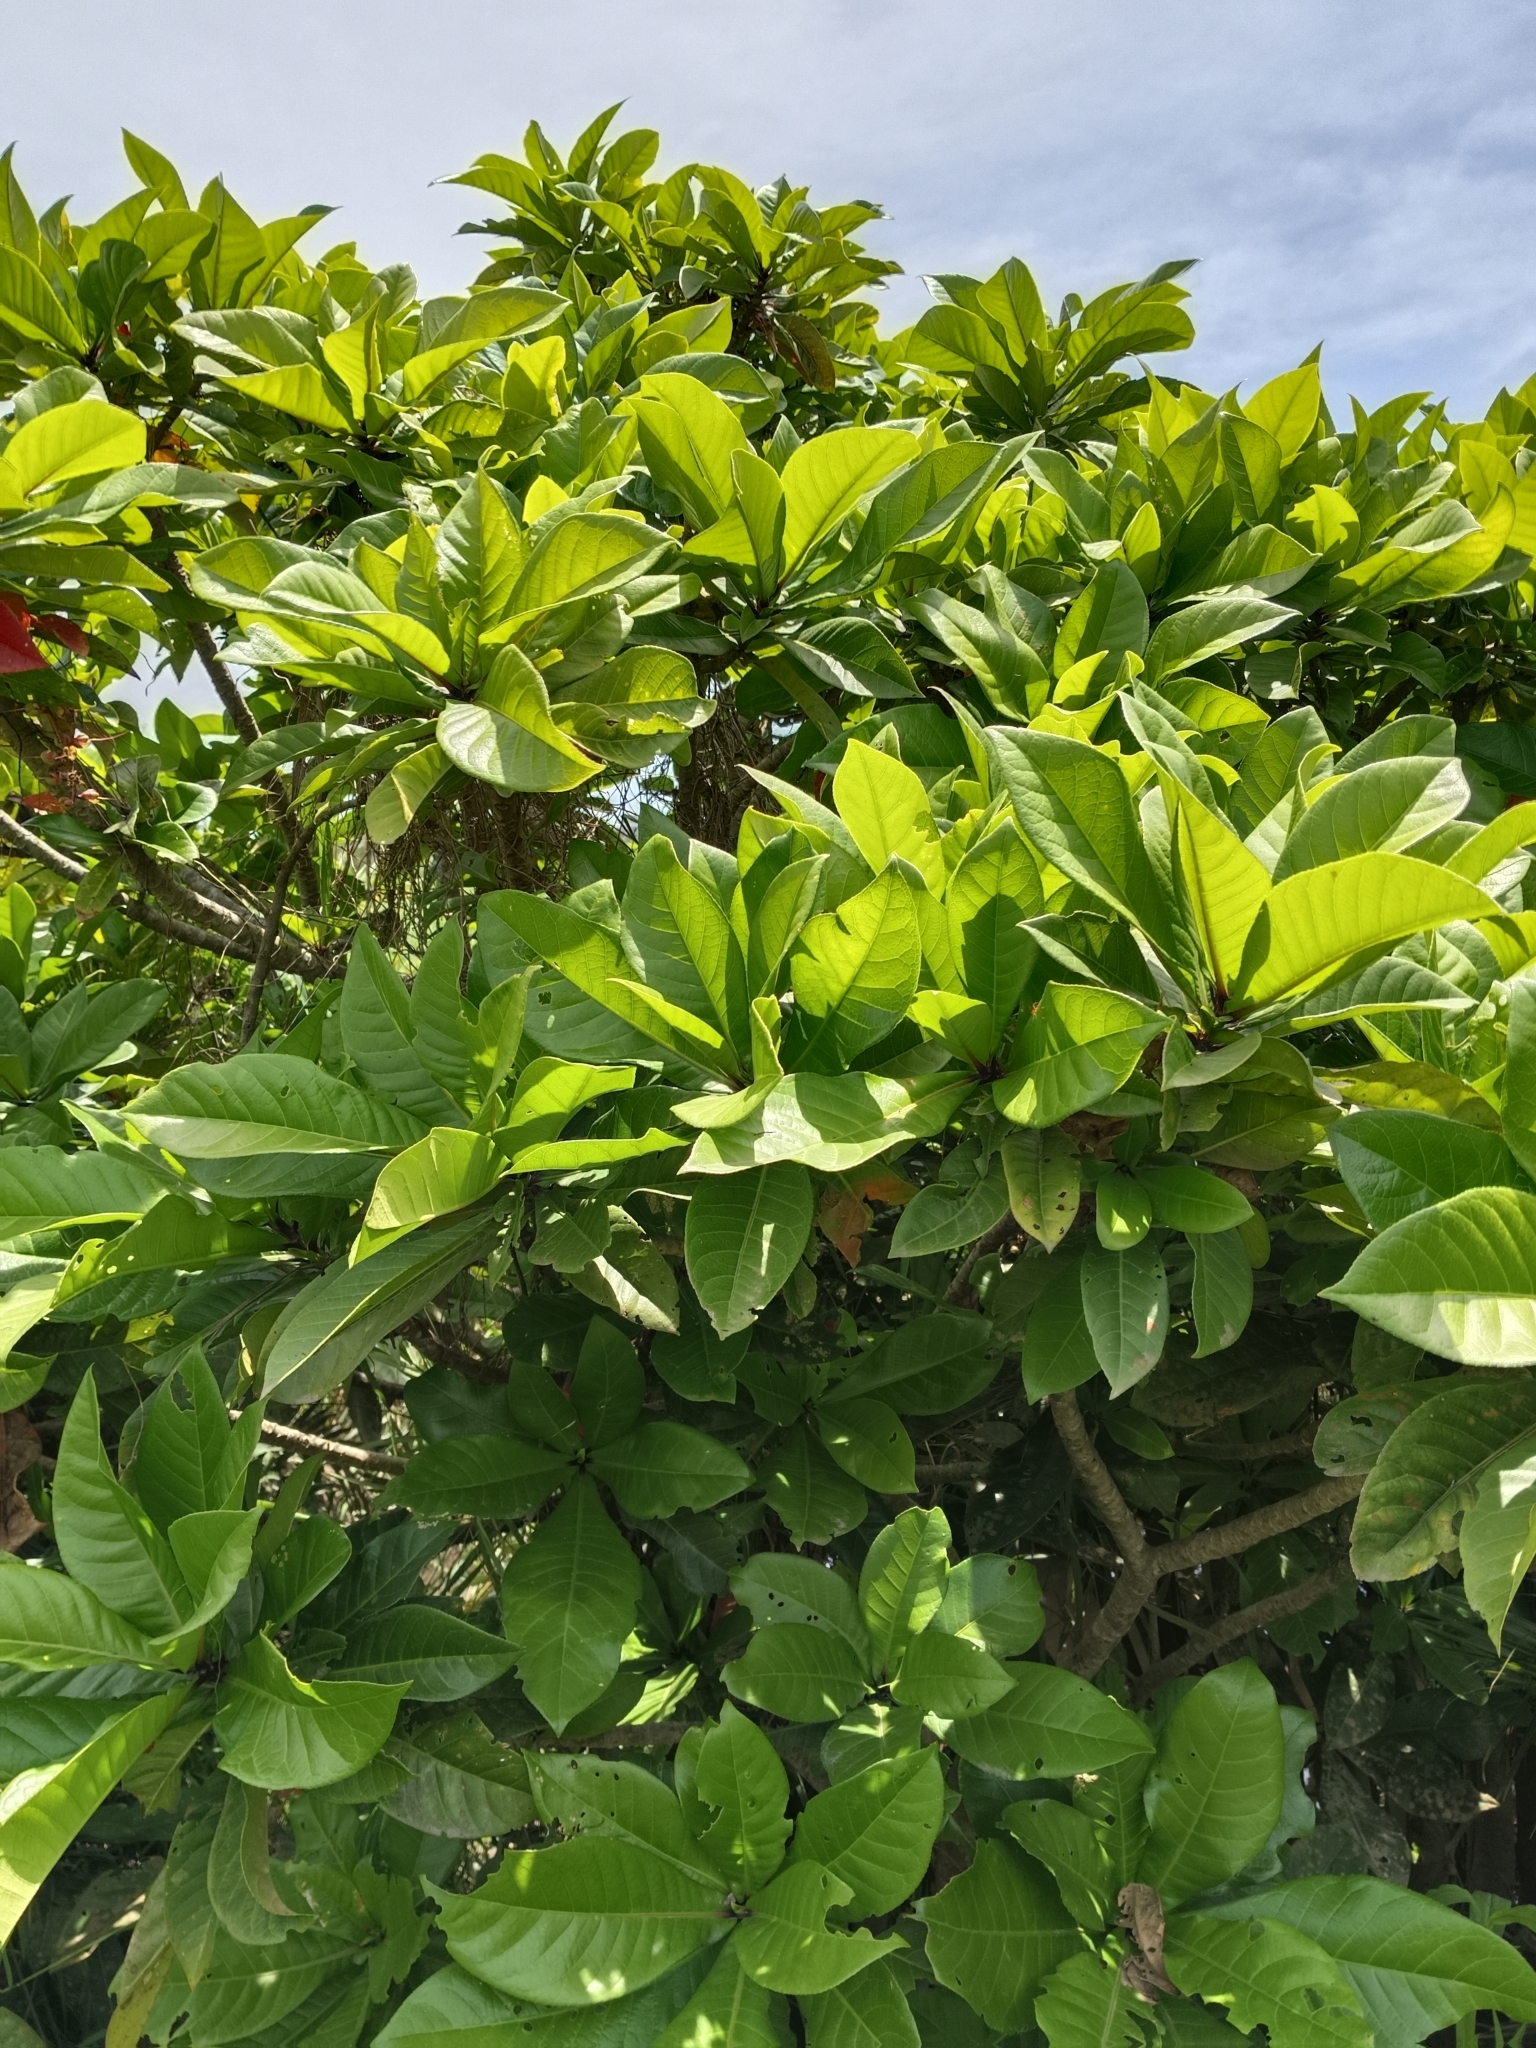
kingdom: Plantae
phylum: Tracheophyta
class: Magnoliopsida
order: Ericales
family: Lecythidaceae
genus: Barringtonia
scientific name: Barringtonia racemosa
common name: Brackwater mangrove
